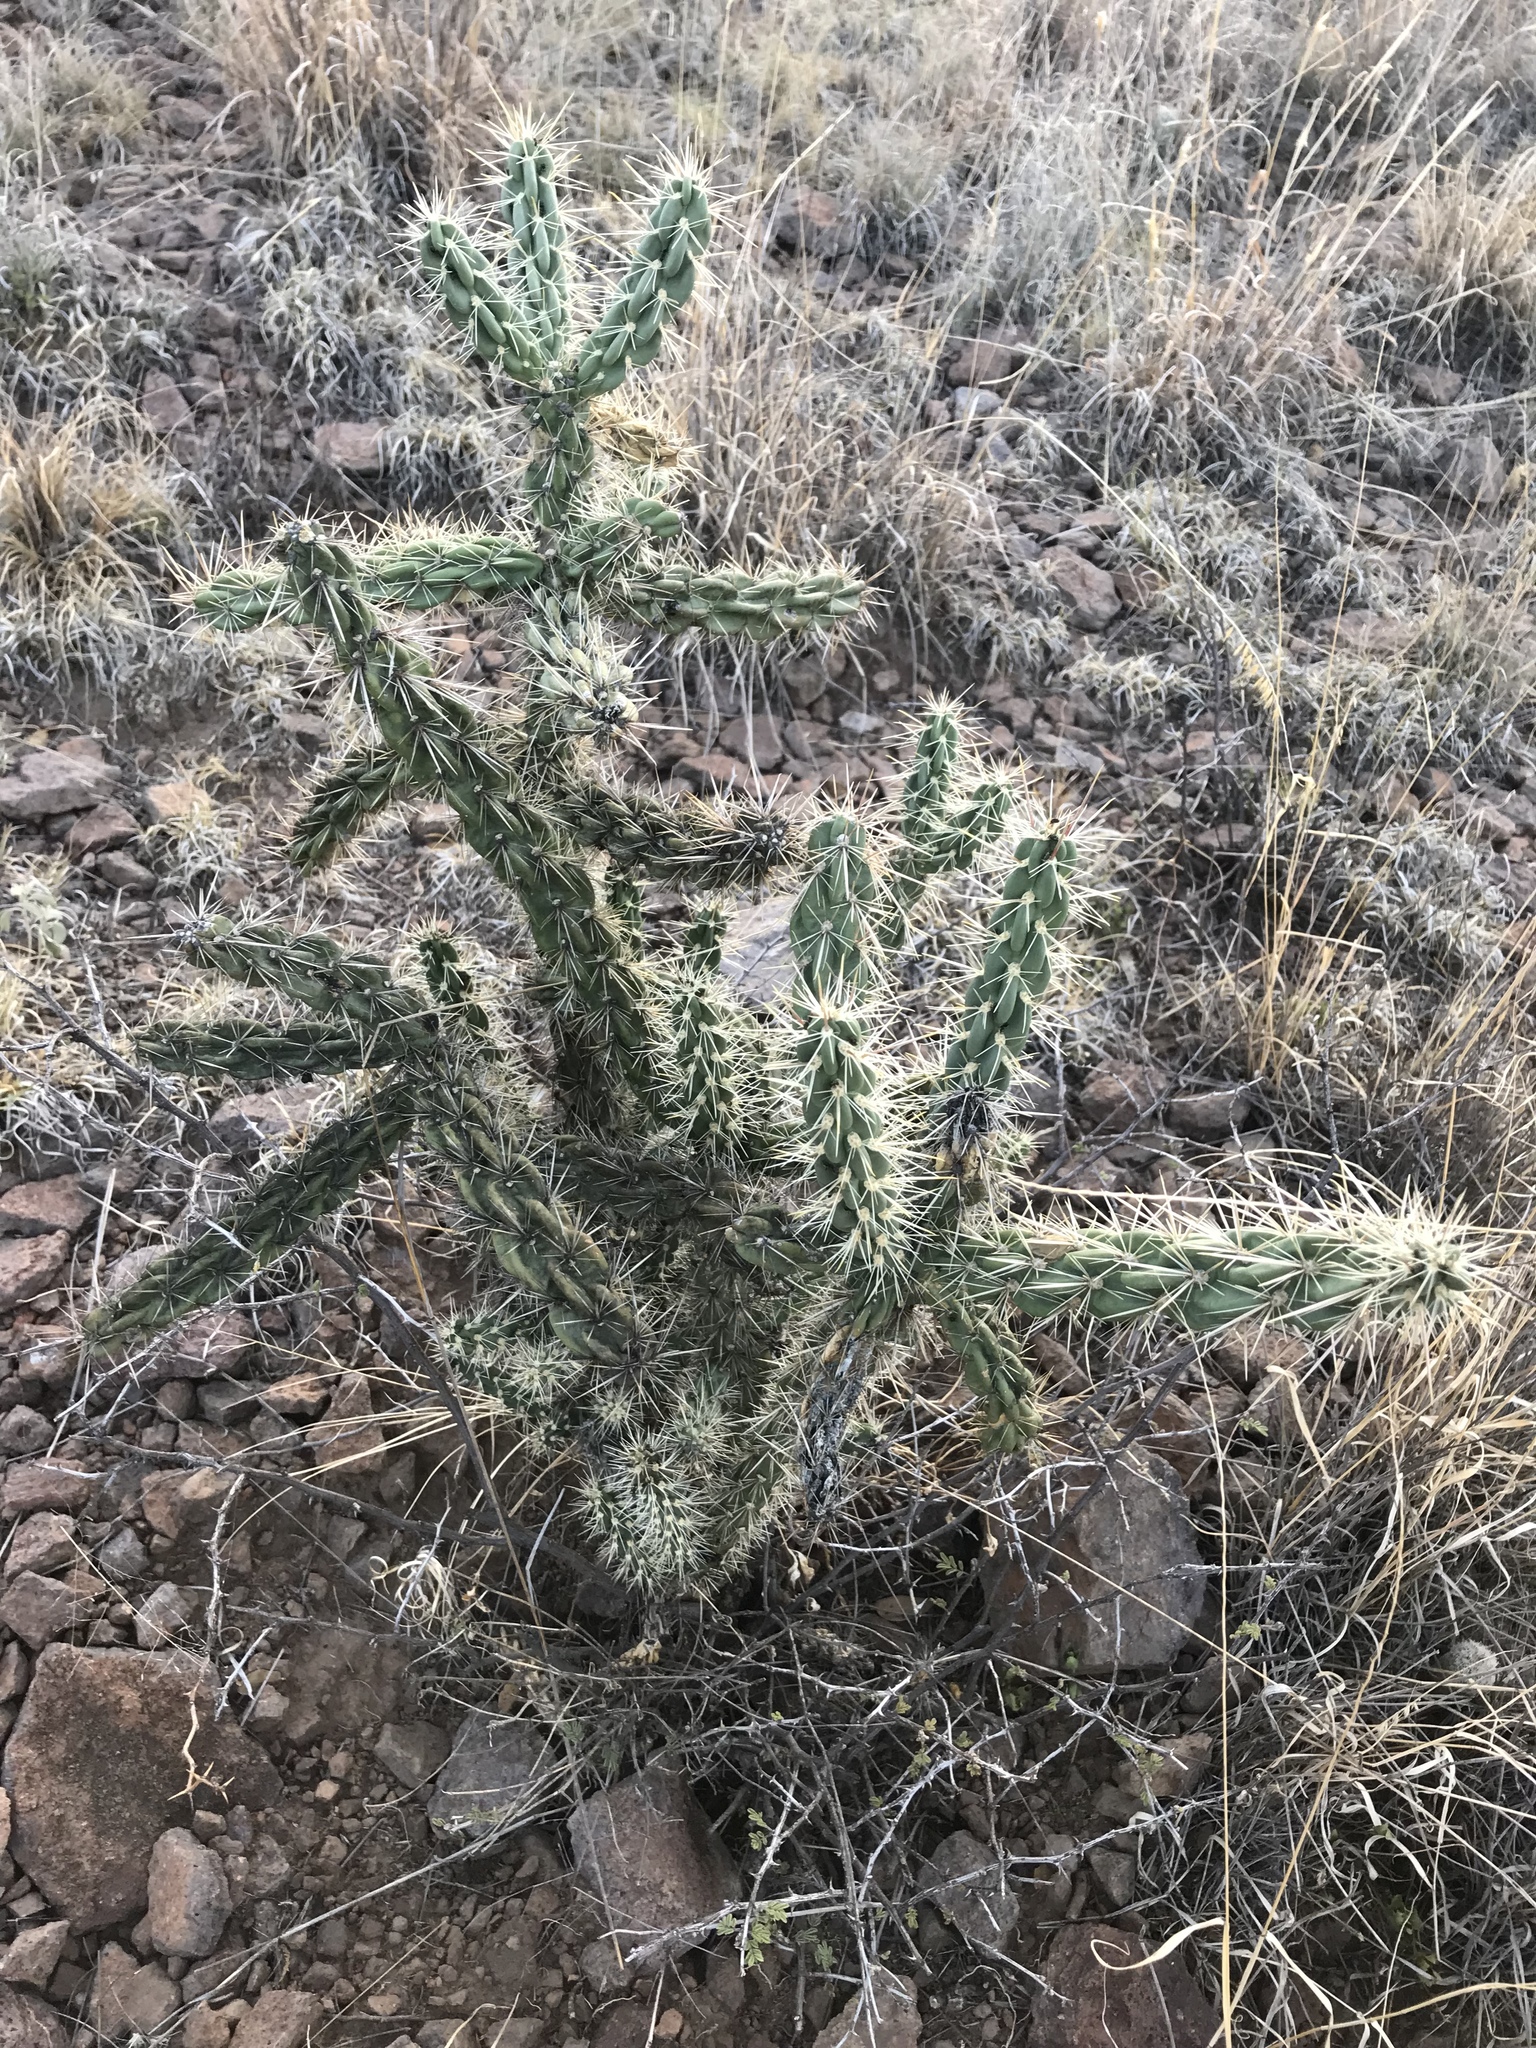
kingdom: Plantae
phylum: Tracheophyta
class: Magnoliopsida
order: Caryophyllales
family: Cactaceae
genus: Cylindropuntia
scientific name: Cylindropuntia imbricata
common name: Candelabrum cactus
